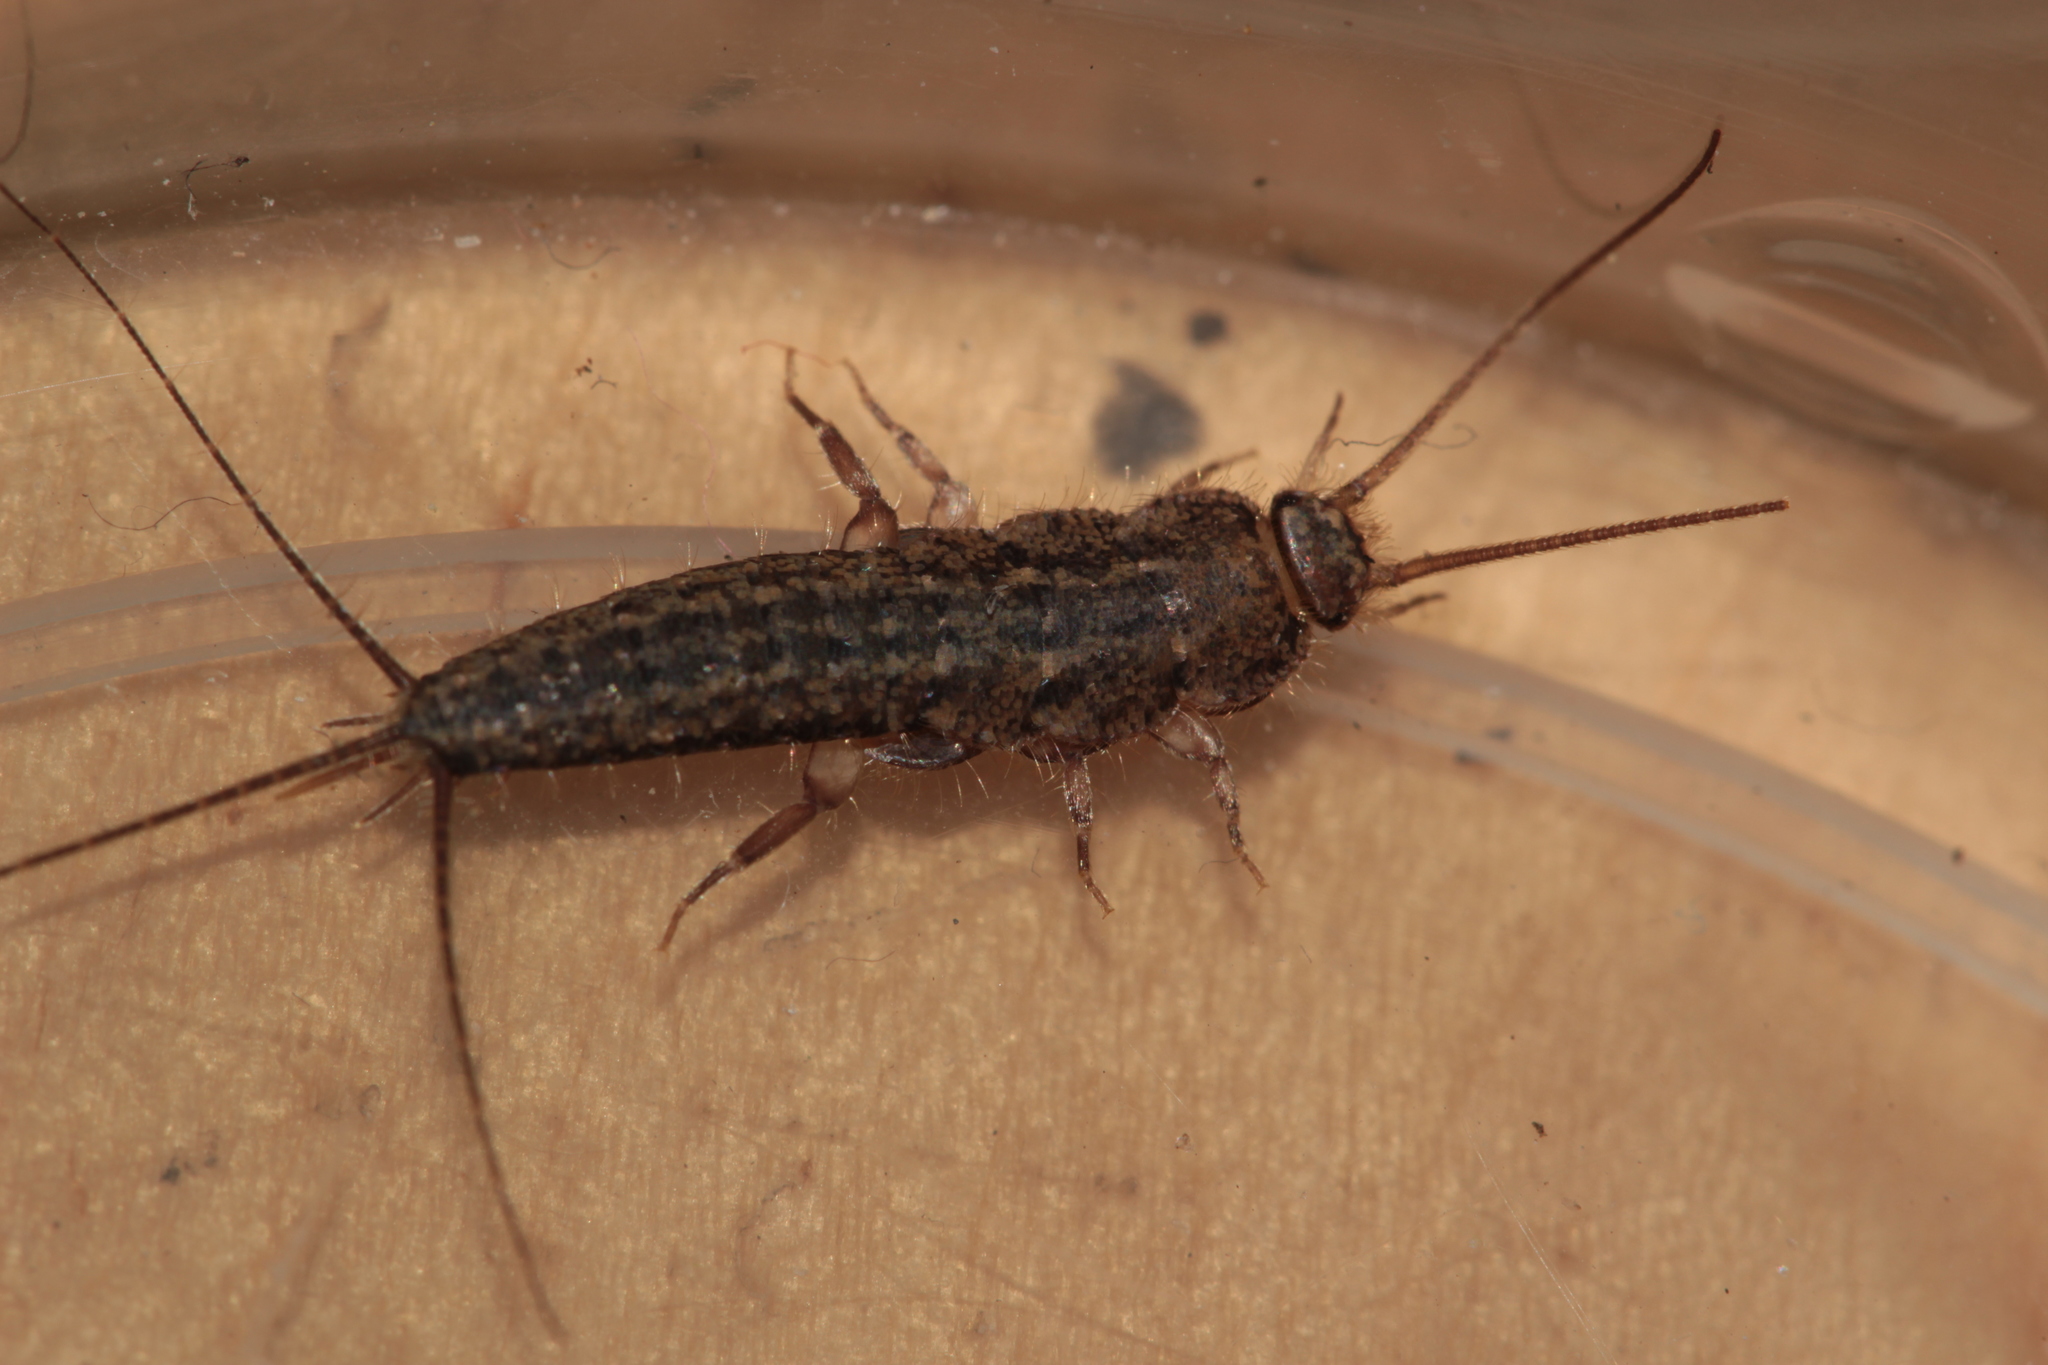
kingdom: Animalia
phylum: Arthropoda
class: Insecta
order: Zygentoma
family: Lepismatidae
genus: Ctenolepisma
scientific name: Ctenolepisma lineata
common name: Four-lined silverfish
